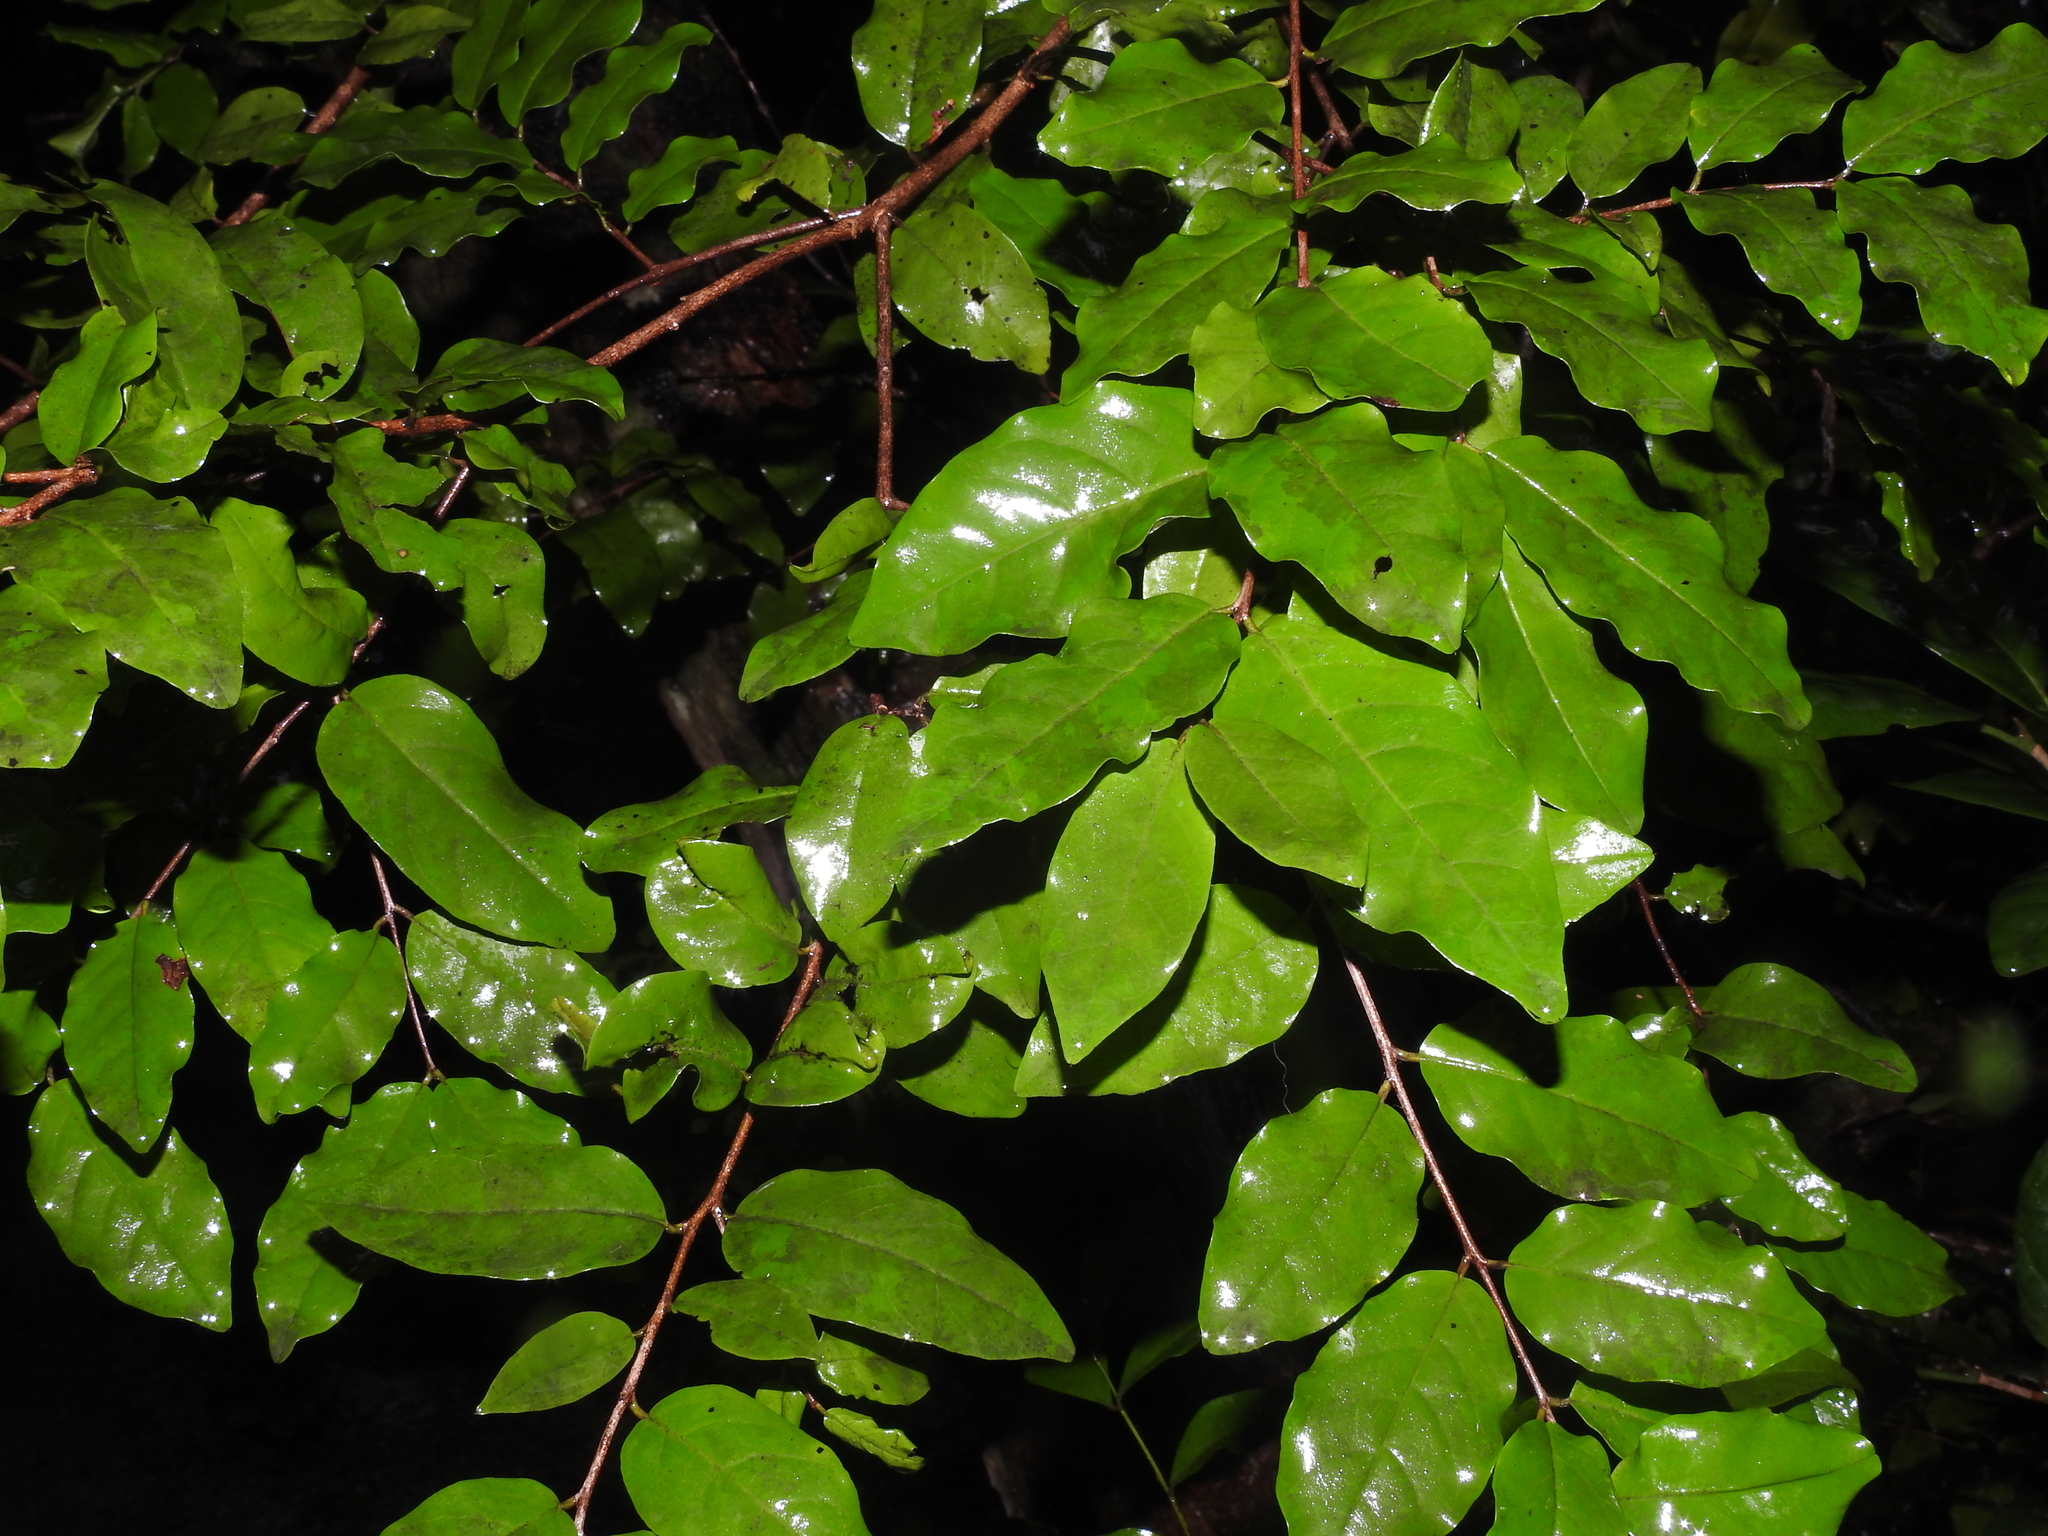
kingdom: Plantae
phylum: Tracheophyta
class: Magnoliopsida
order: Rosales
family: Rhamnaceae
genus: Krugiodendron
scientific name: Krugiodendron ferreum
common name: Iron wood
